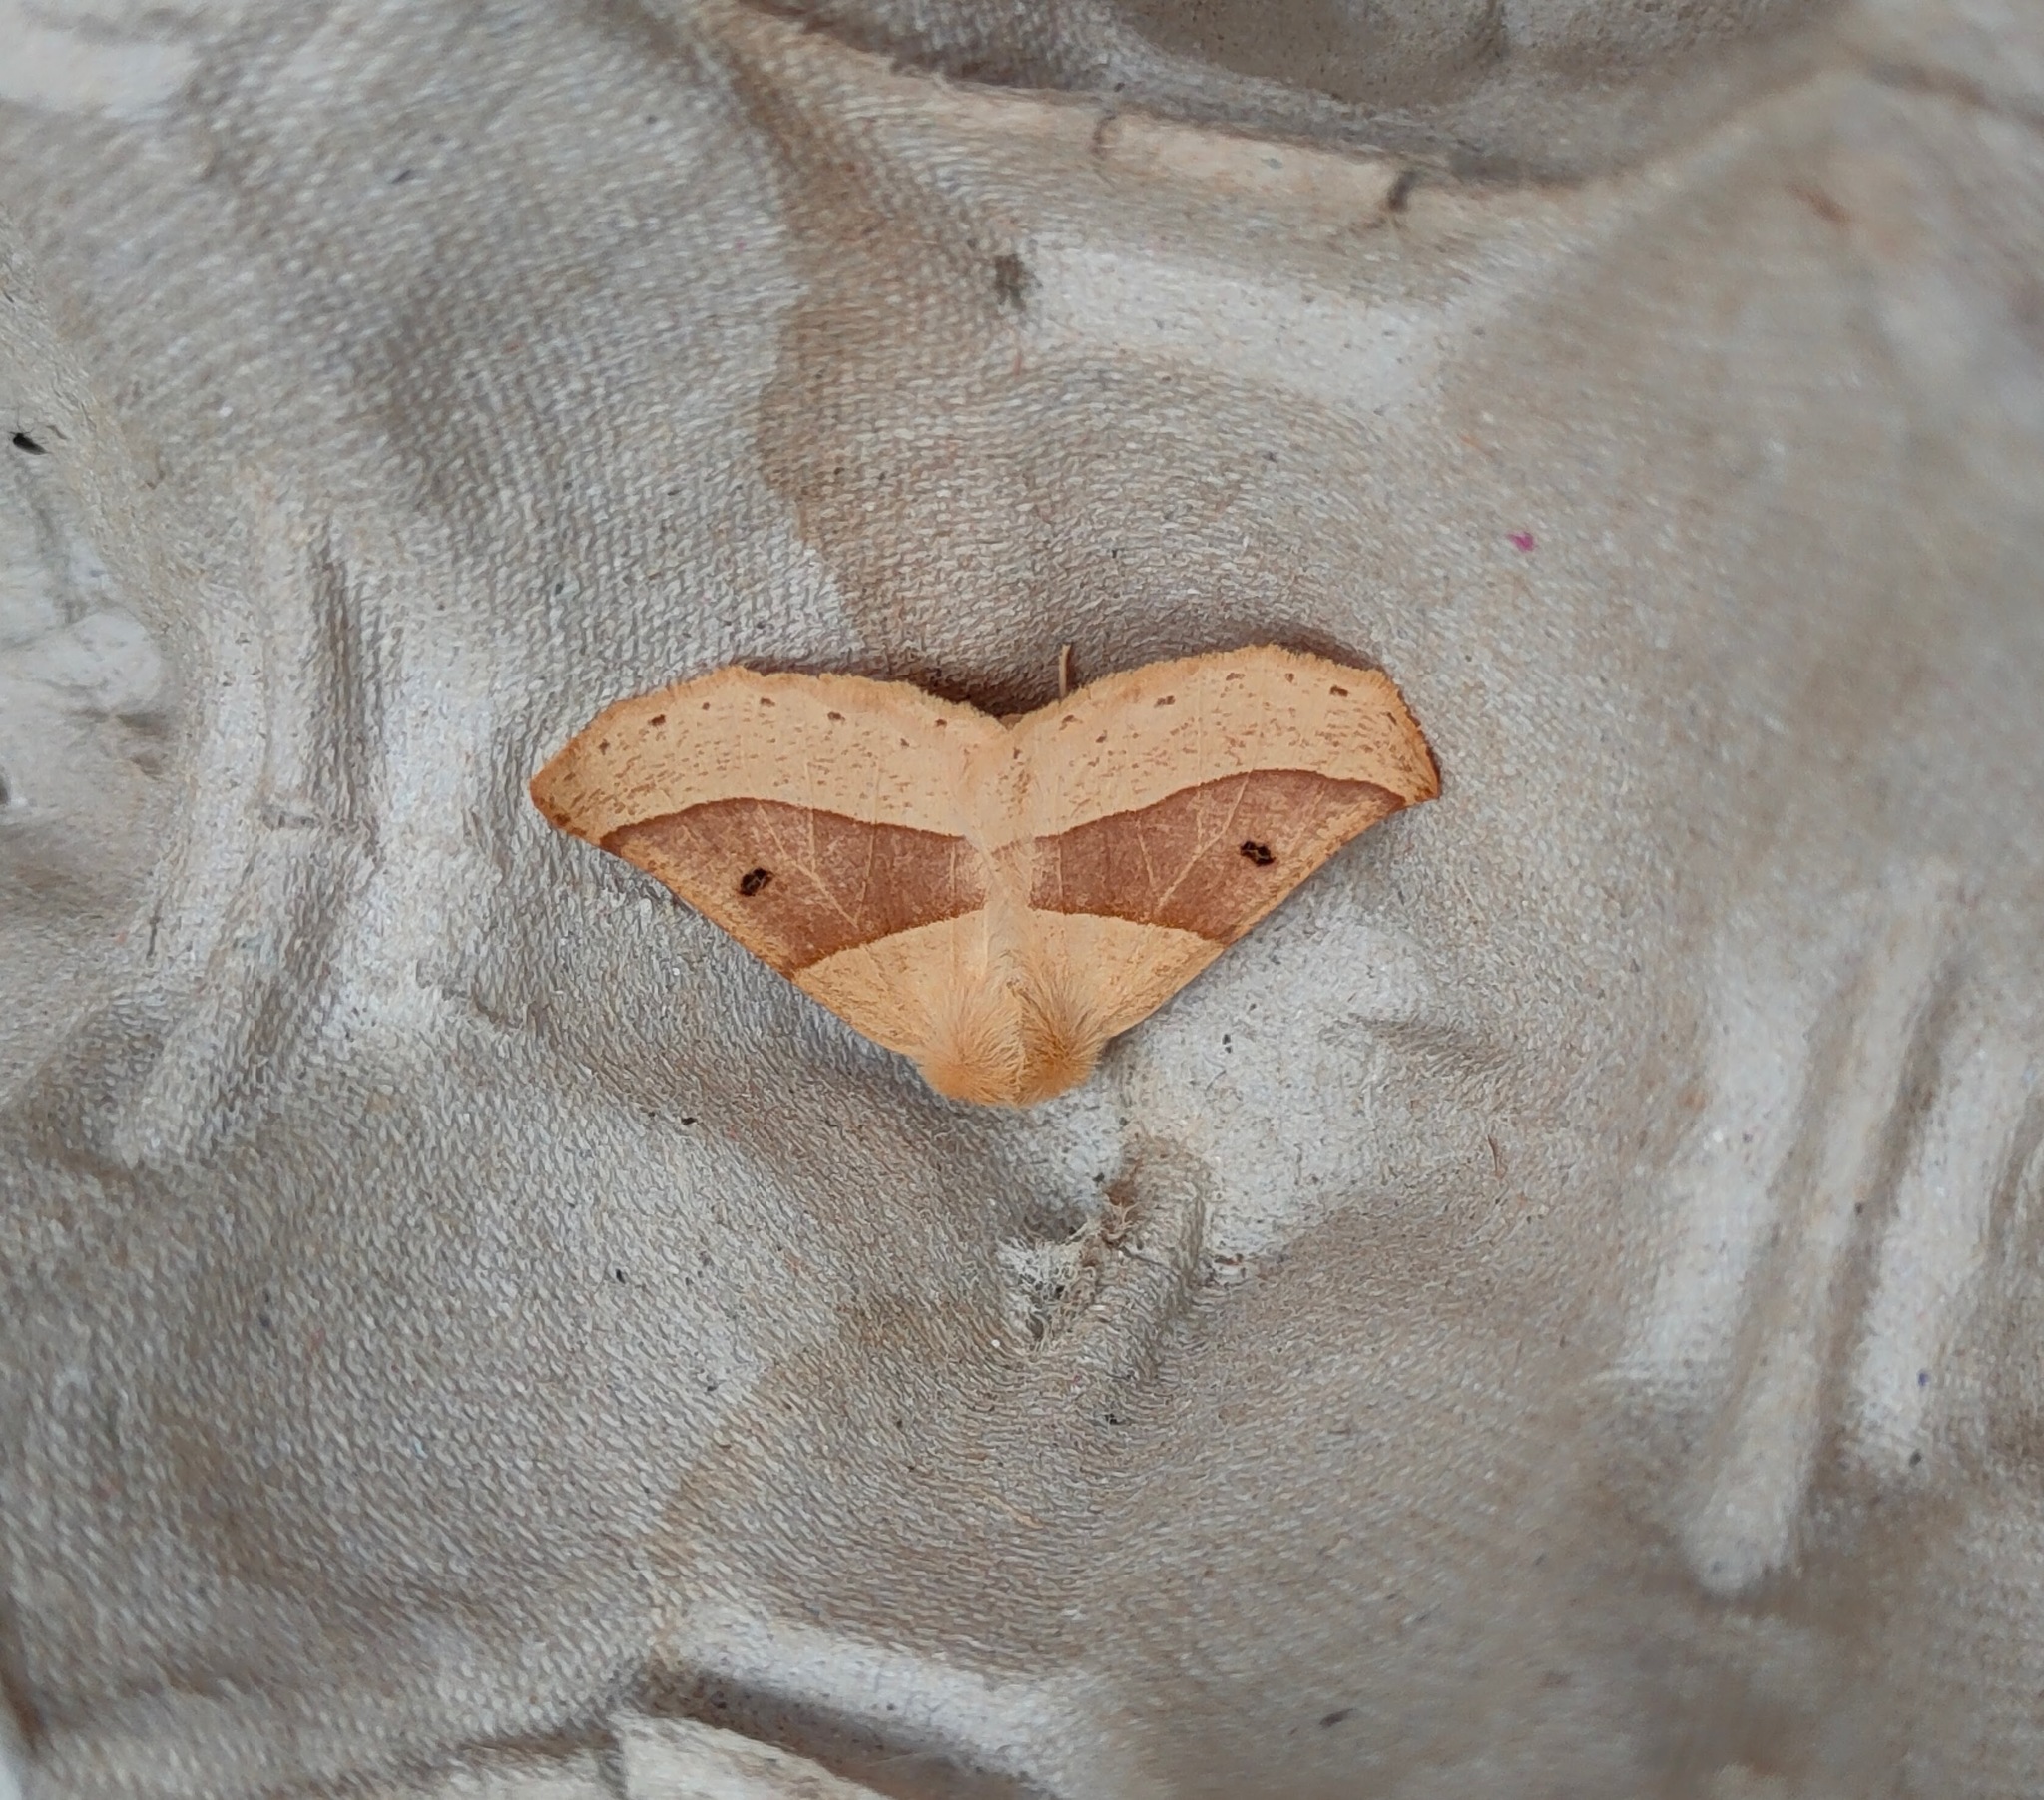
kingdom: Animalia
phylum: Arthropoda
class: Insecta
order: Lepidoptera
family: Geometridae
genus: Crocallis
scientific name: Crocallis elinguaria
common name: Scalloped oak
